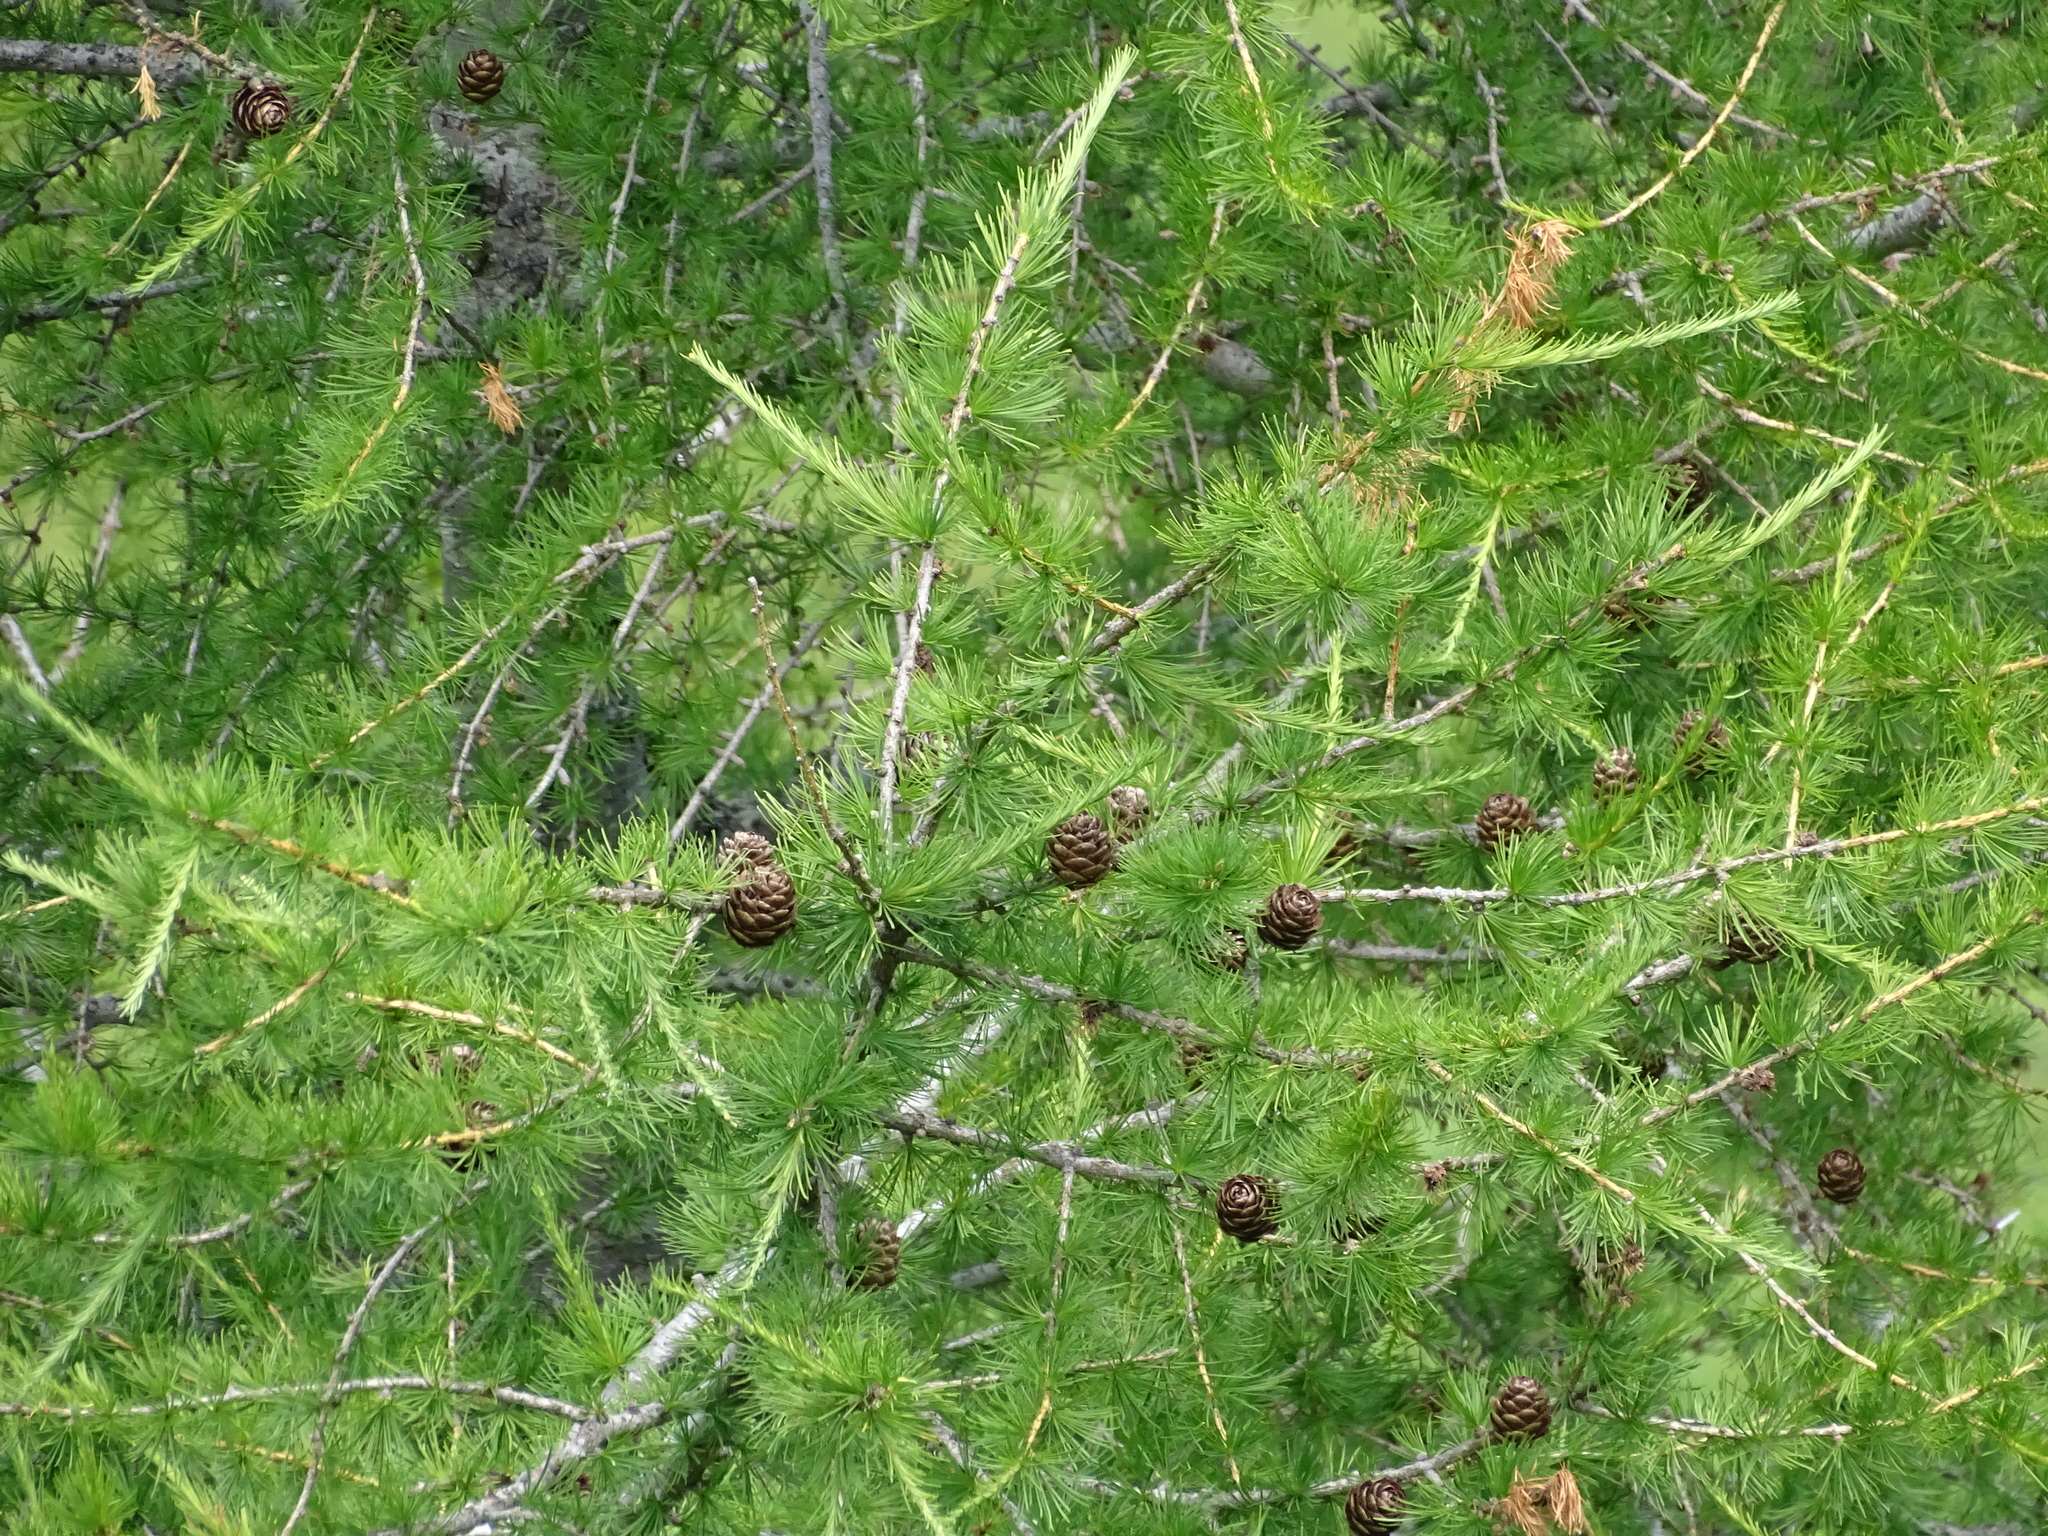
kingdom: Plantae
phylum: Tracheophyta
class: Pinopsida
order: Pinales
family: Pinaceae
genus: Larix
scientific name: Larix decidua
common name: European larch
